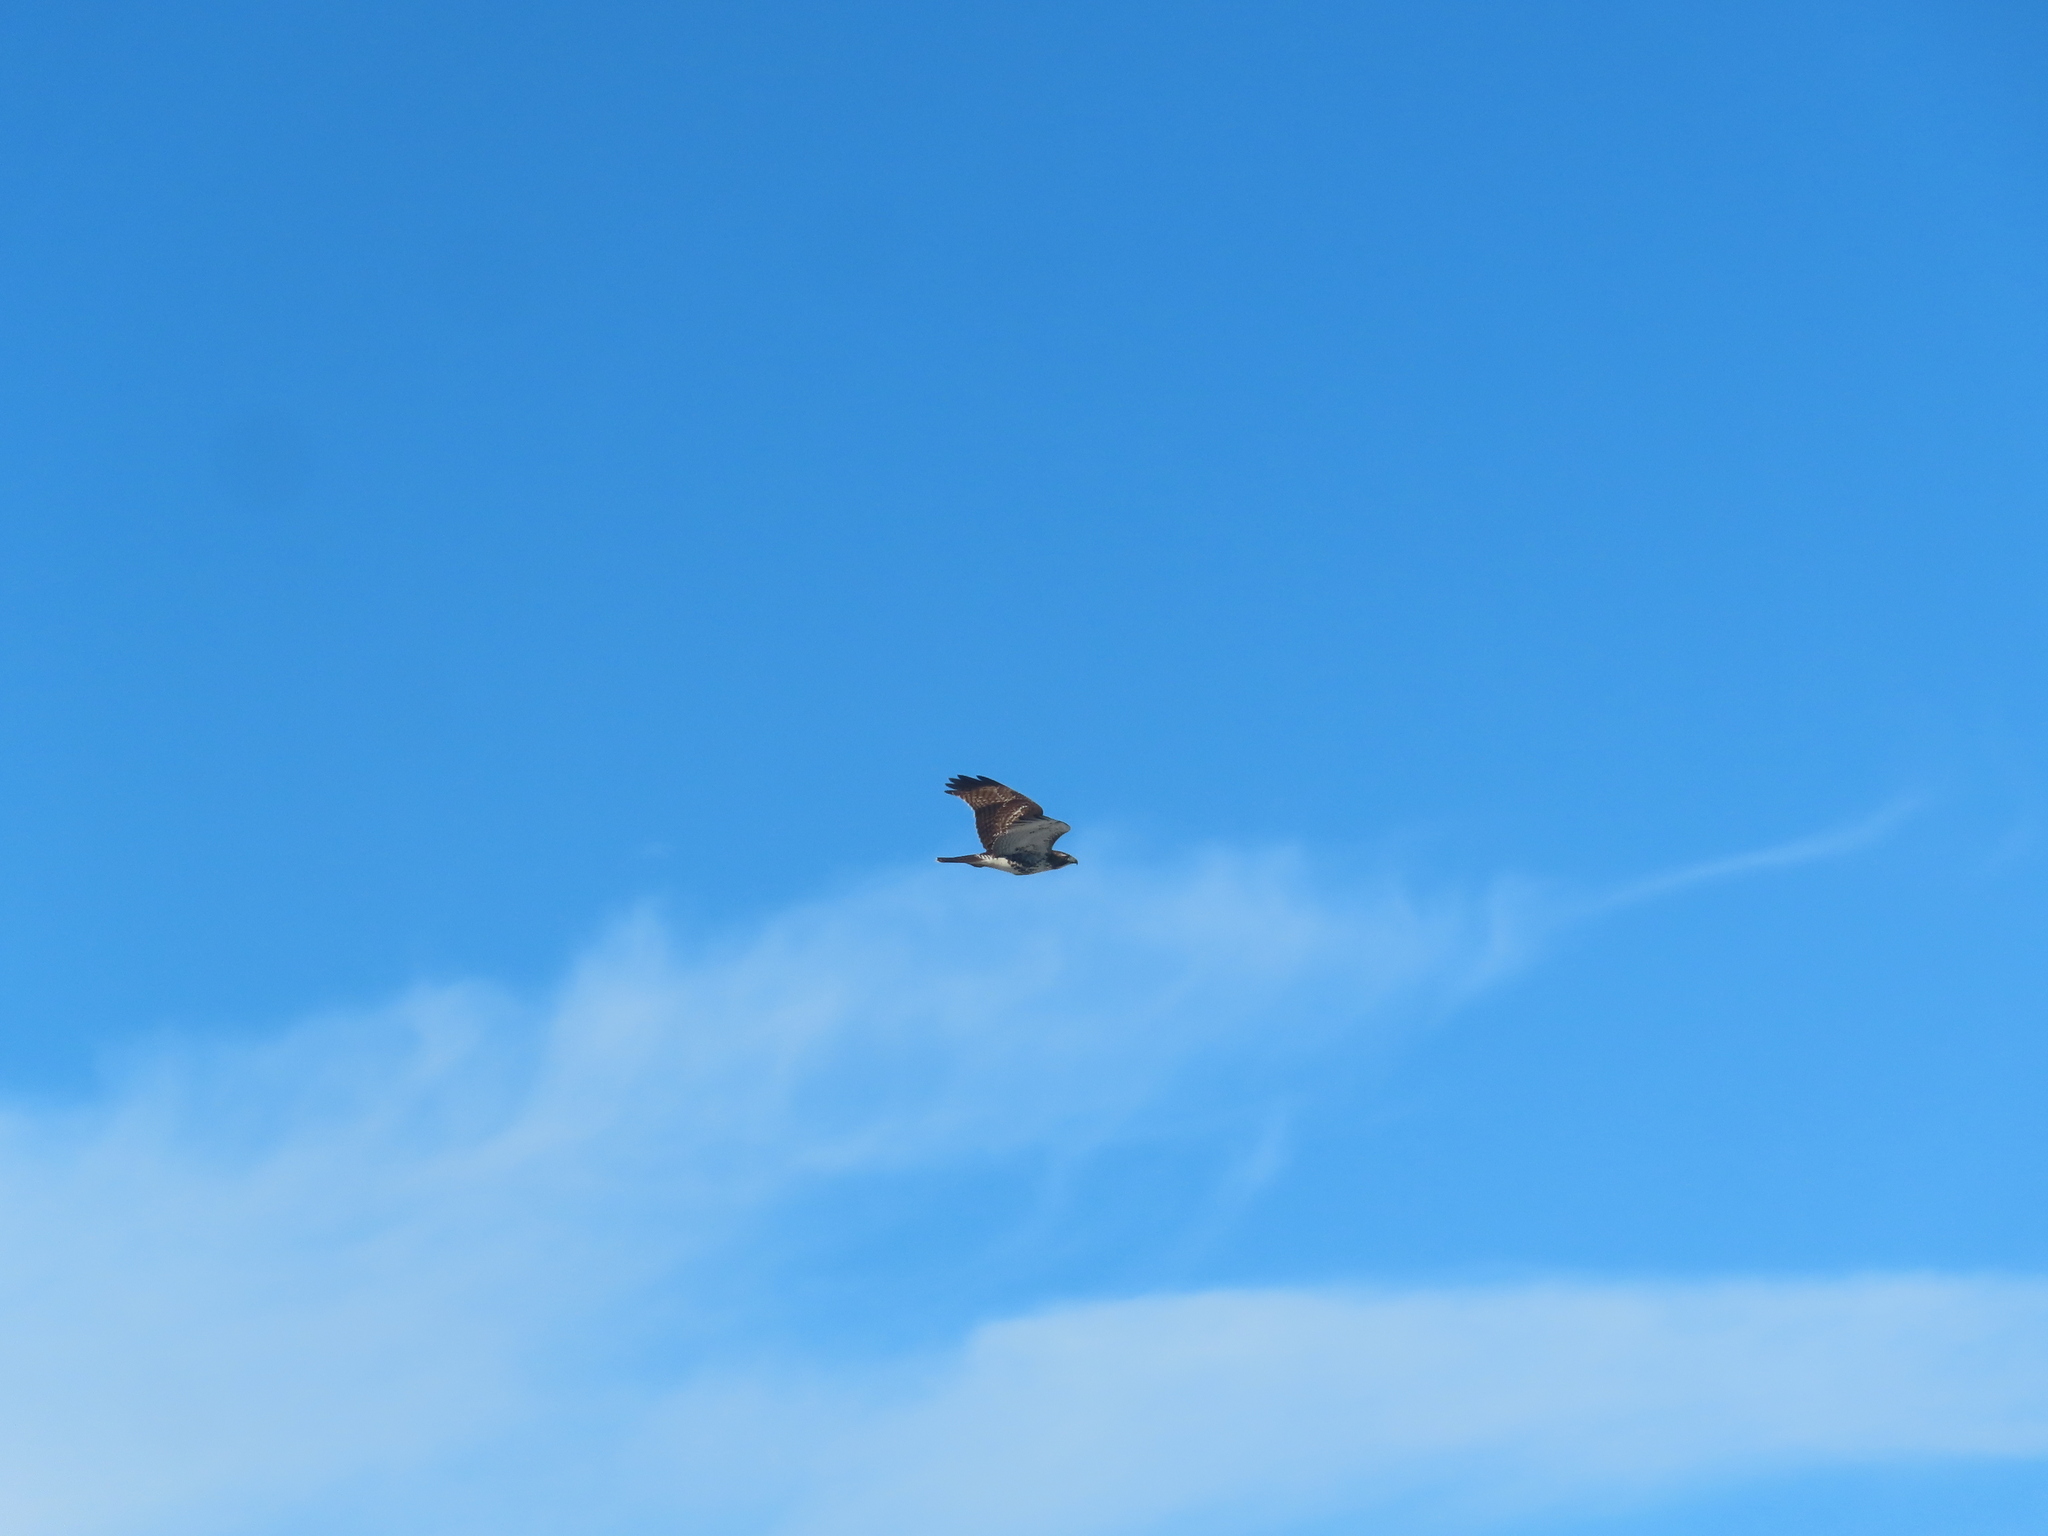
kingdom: Animalia
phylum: Chordata
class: Aves
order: Accipitriformes
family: Accipitridae
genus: Buteo
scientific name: Buteo jamaicensis
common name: Red-tailed hawk
